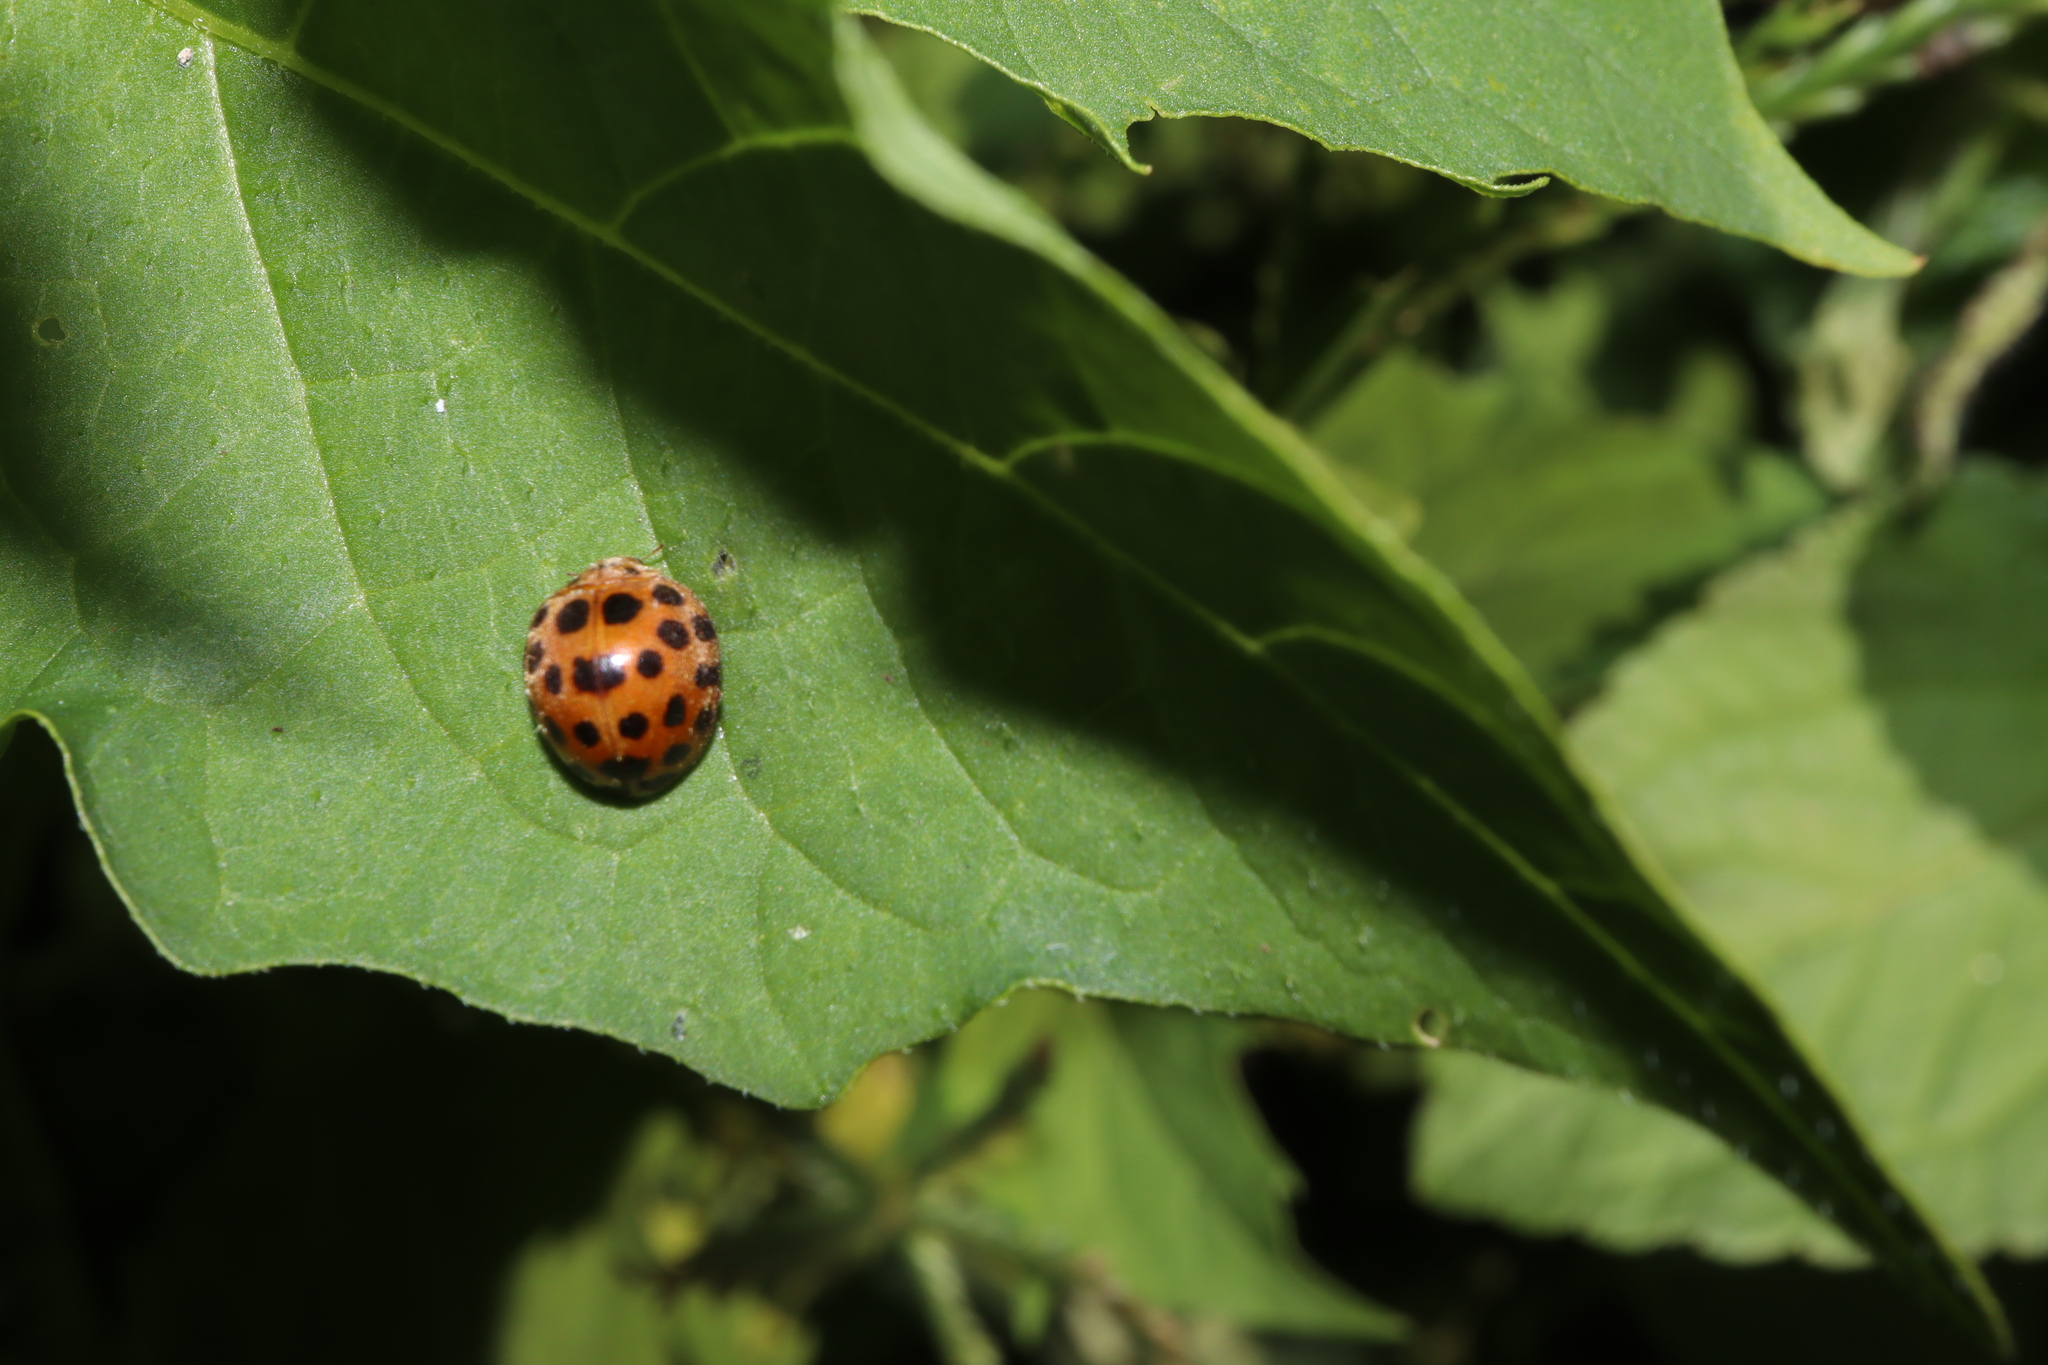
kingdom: Animalia
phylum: Arthropoda
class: Insecta
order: Coleoptera
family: Coccinellidae
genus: Henosepilachna
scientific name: Henosepilachna vigintioctopunctata
